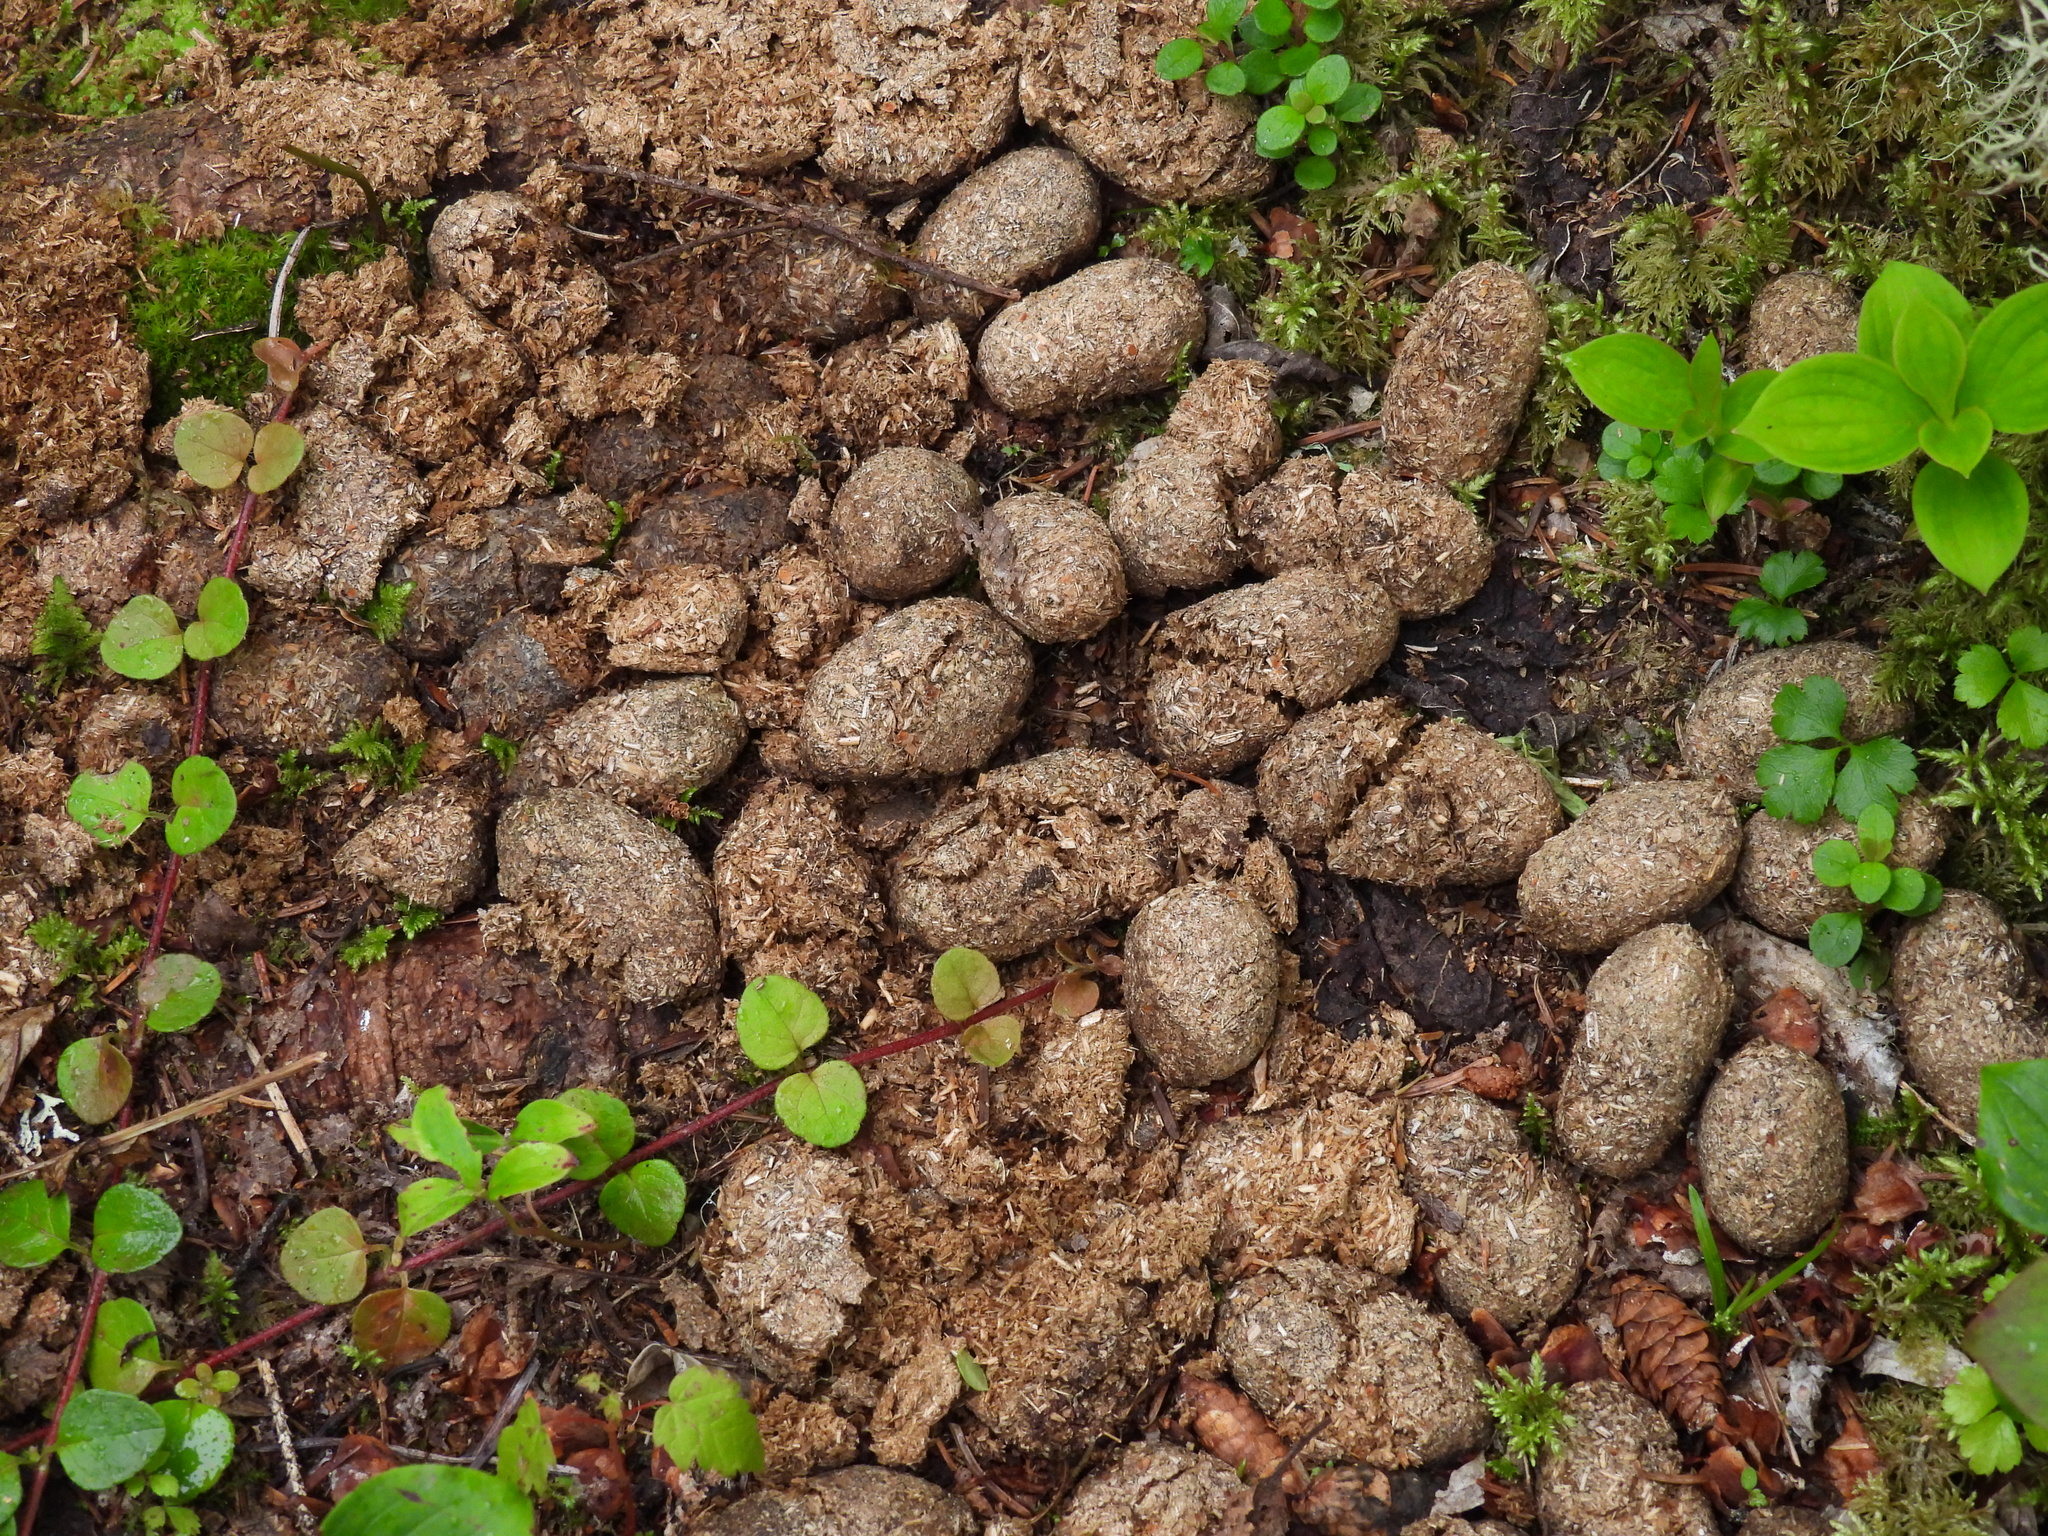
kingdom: Animalia
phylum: Chordata
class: Mammalia
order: Artiodactyla
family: Cervidae
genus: Alces
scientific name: Alces alces
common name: Moose
